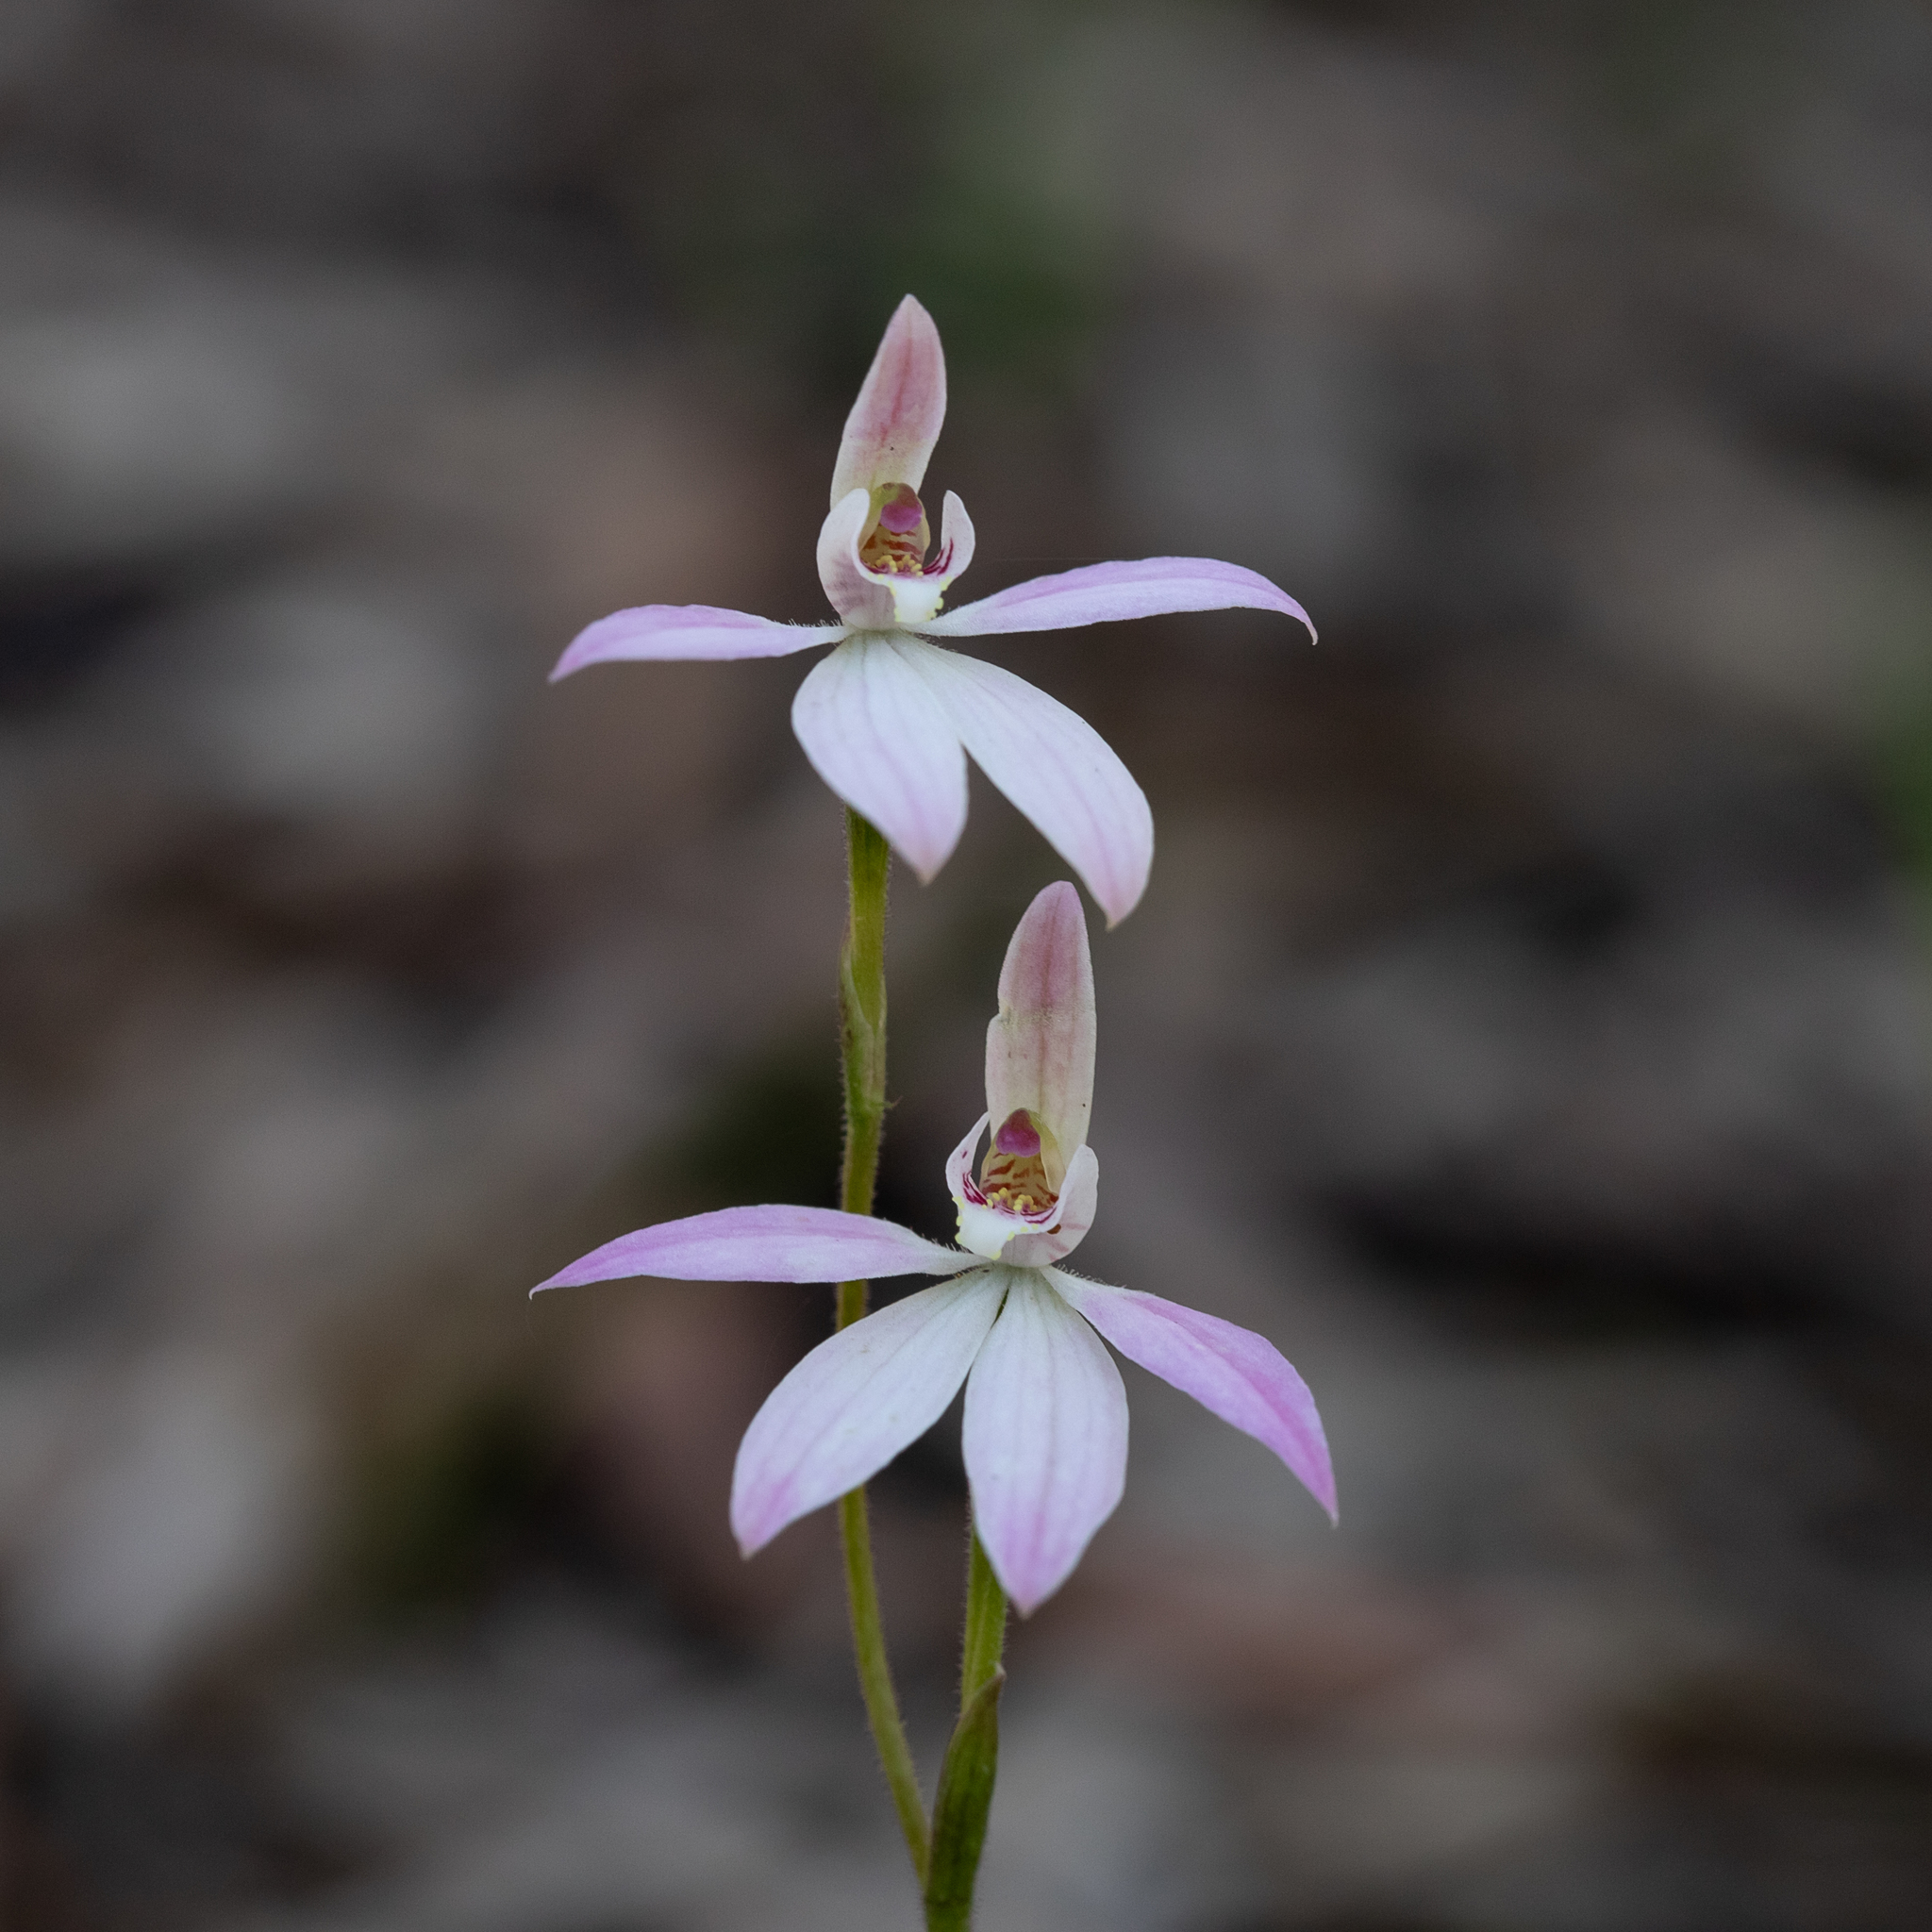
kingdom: Plantae
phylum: Tracheophyta
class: Liliopsida
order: Asparagales
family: Orchidaceae
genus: Caladenia
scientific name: Caladenia carnea
